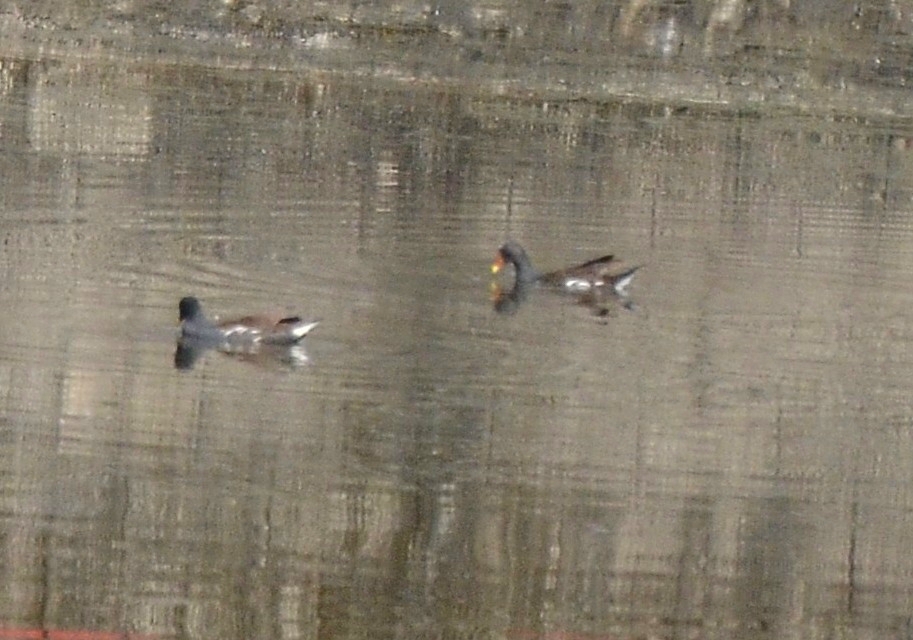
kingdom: Animalia
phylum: Chordata
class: Aves
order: Gruiformes
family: Rallidae
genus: Gallinula
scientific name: Gallinula chloropus
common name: Common moorhen
